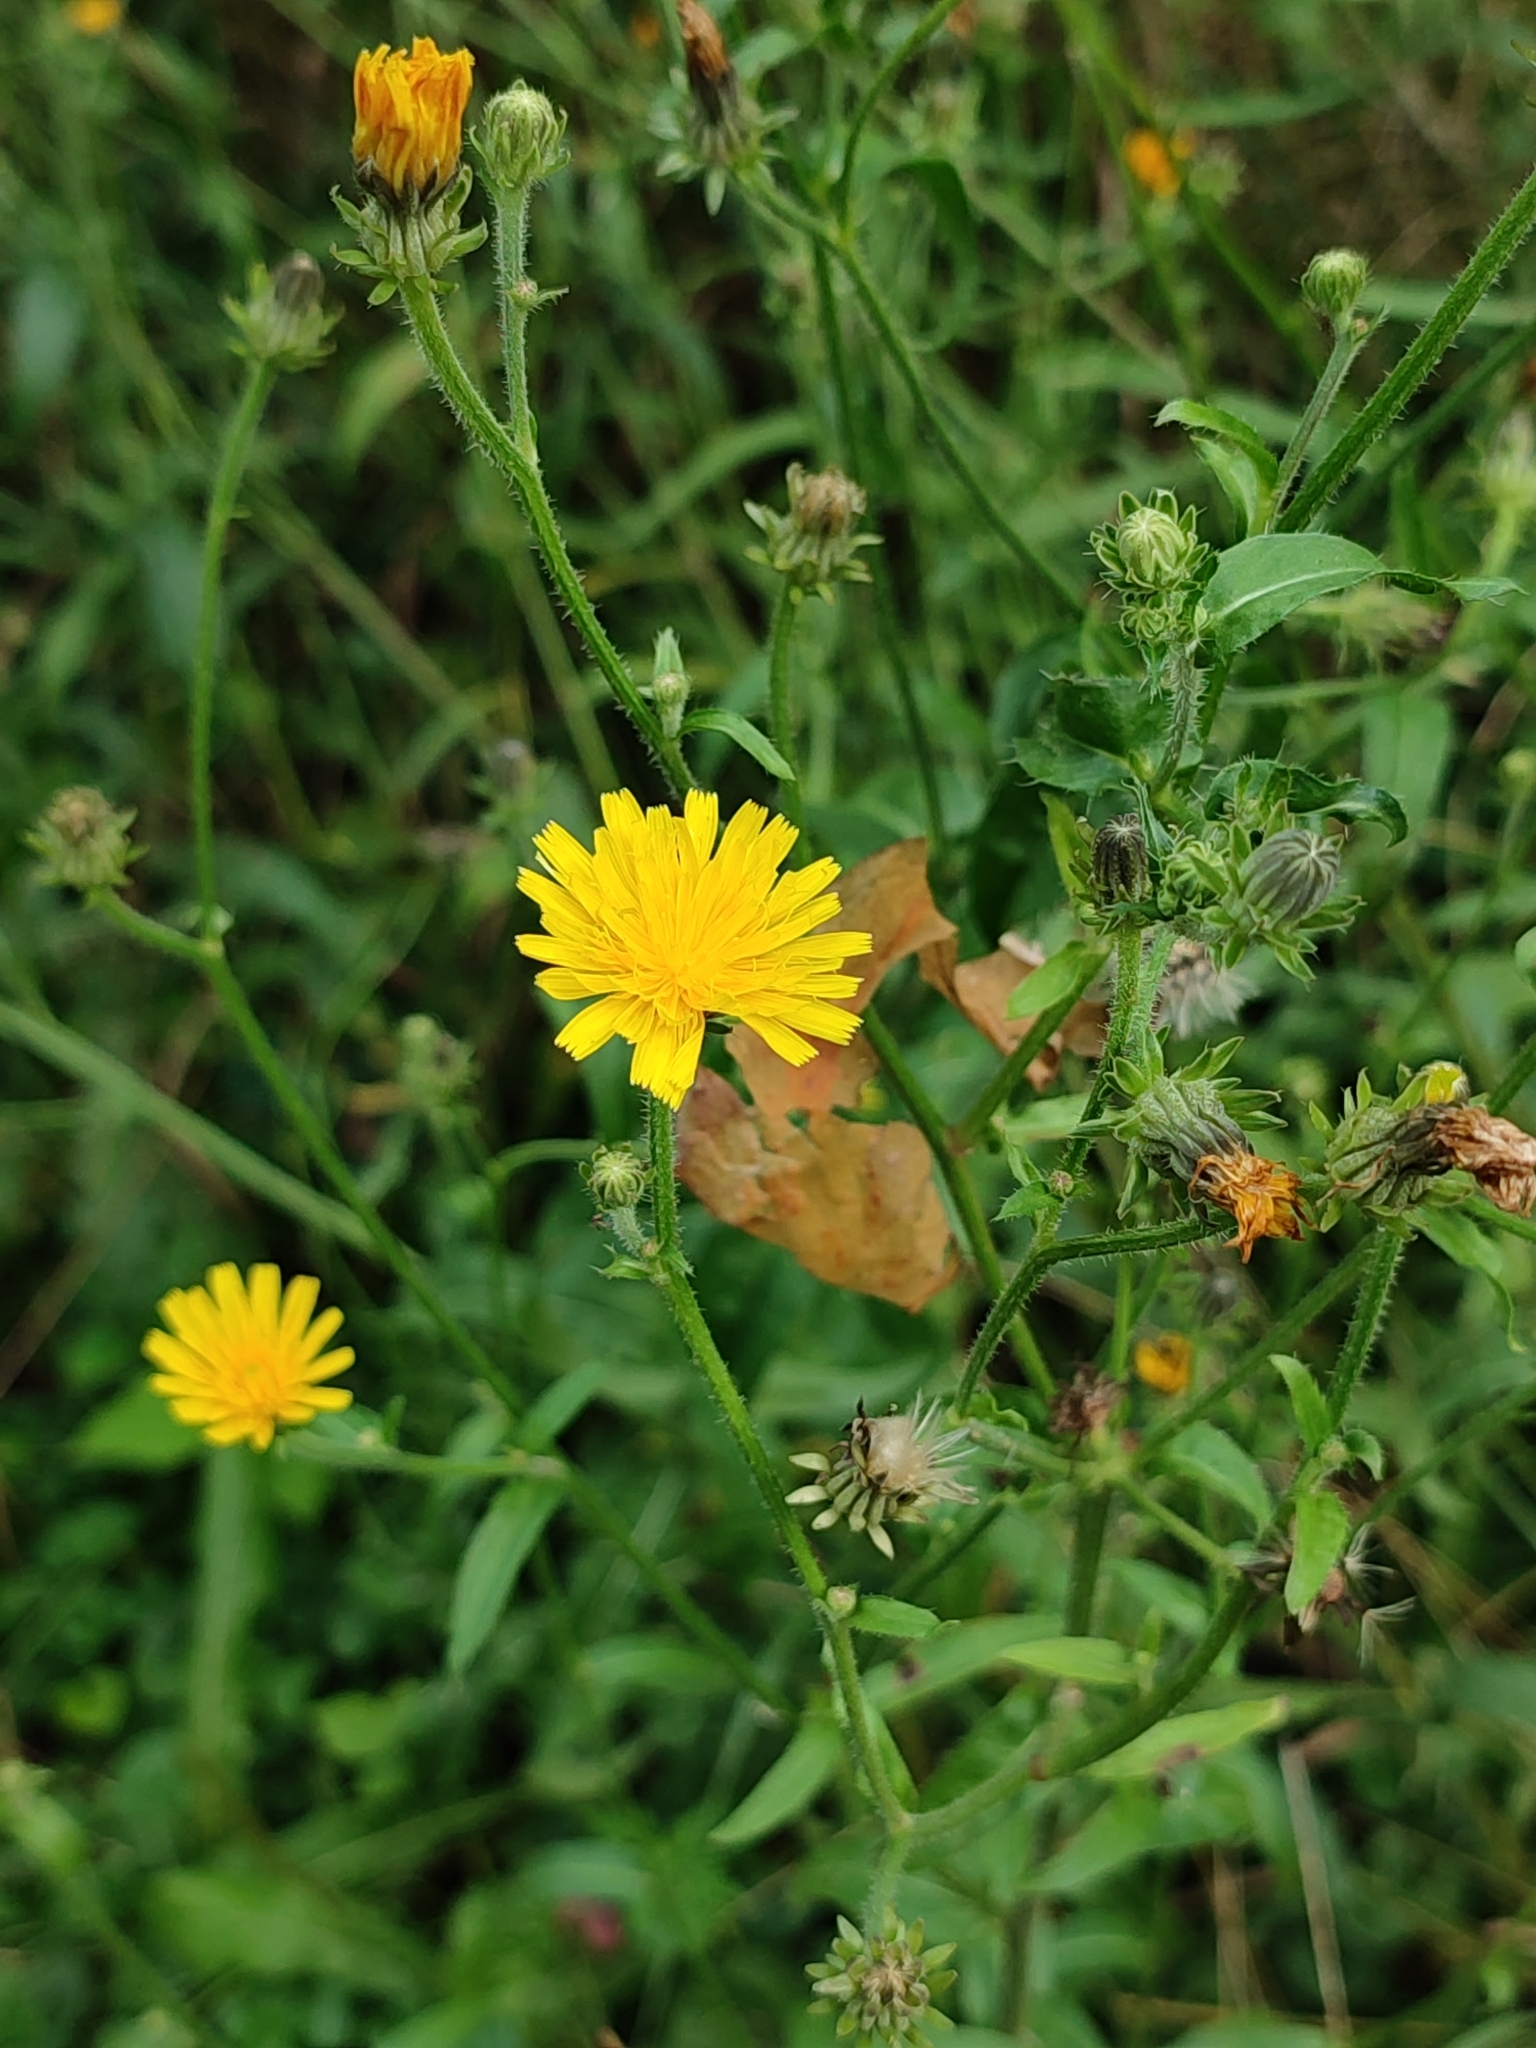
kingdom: Plantae
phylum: Tracheophyta
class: Magnoliopsida
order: Asterales
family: Asteraceae
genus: Picris
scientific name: Picris hieracioides
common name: Hawkweed oxtongue
